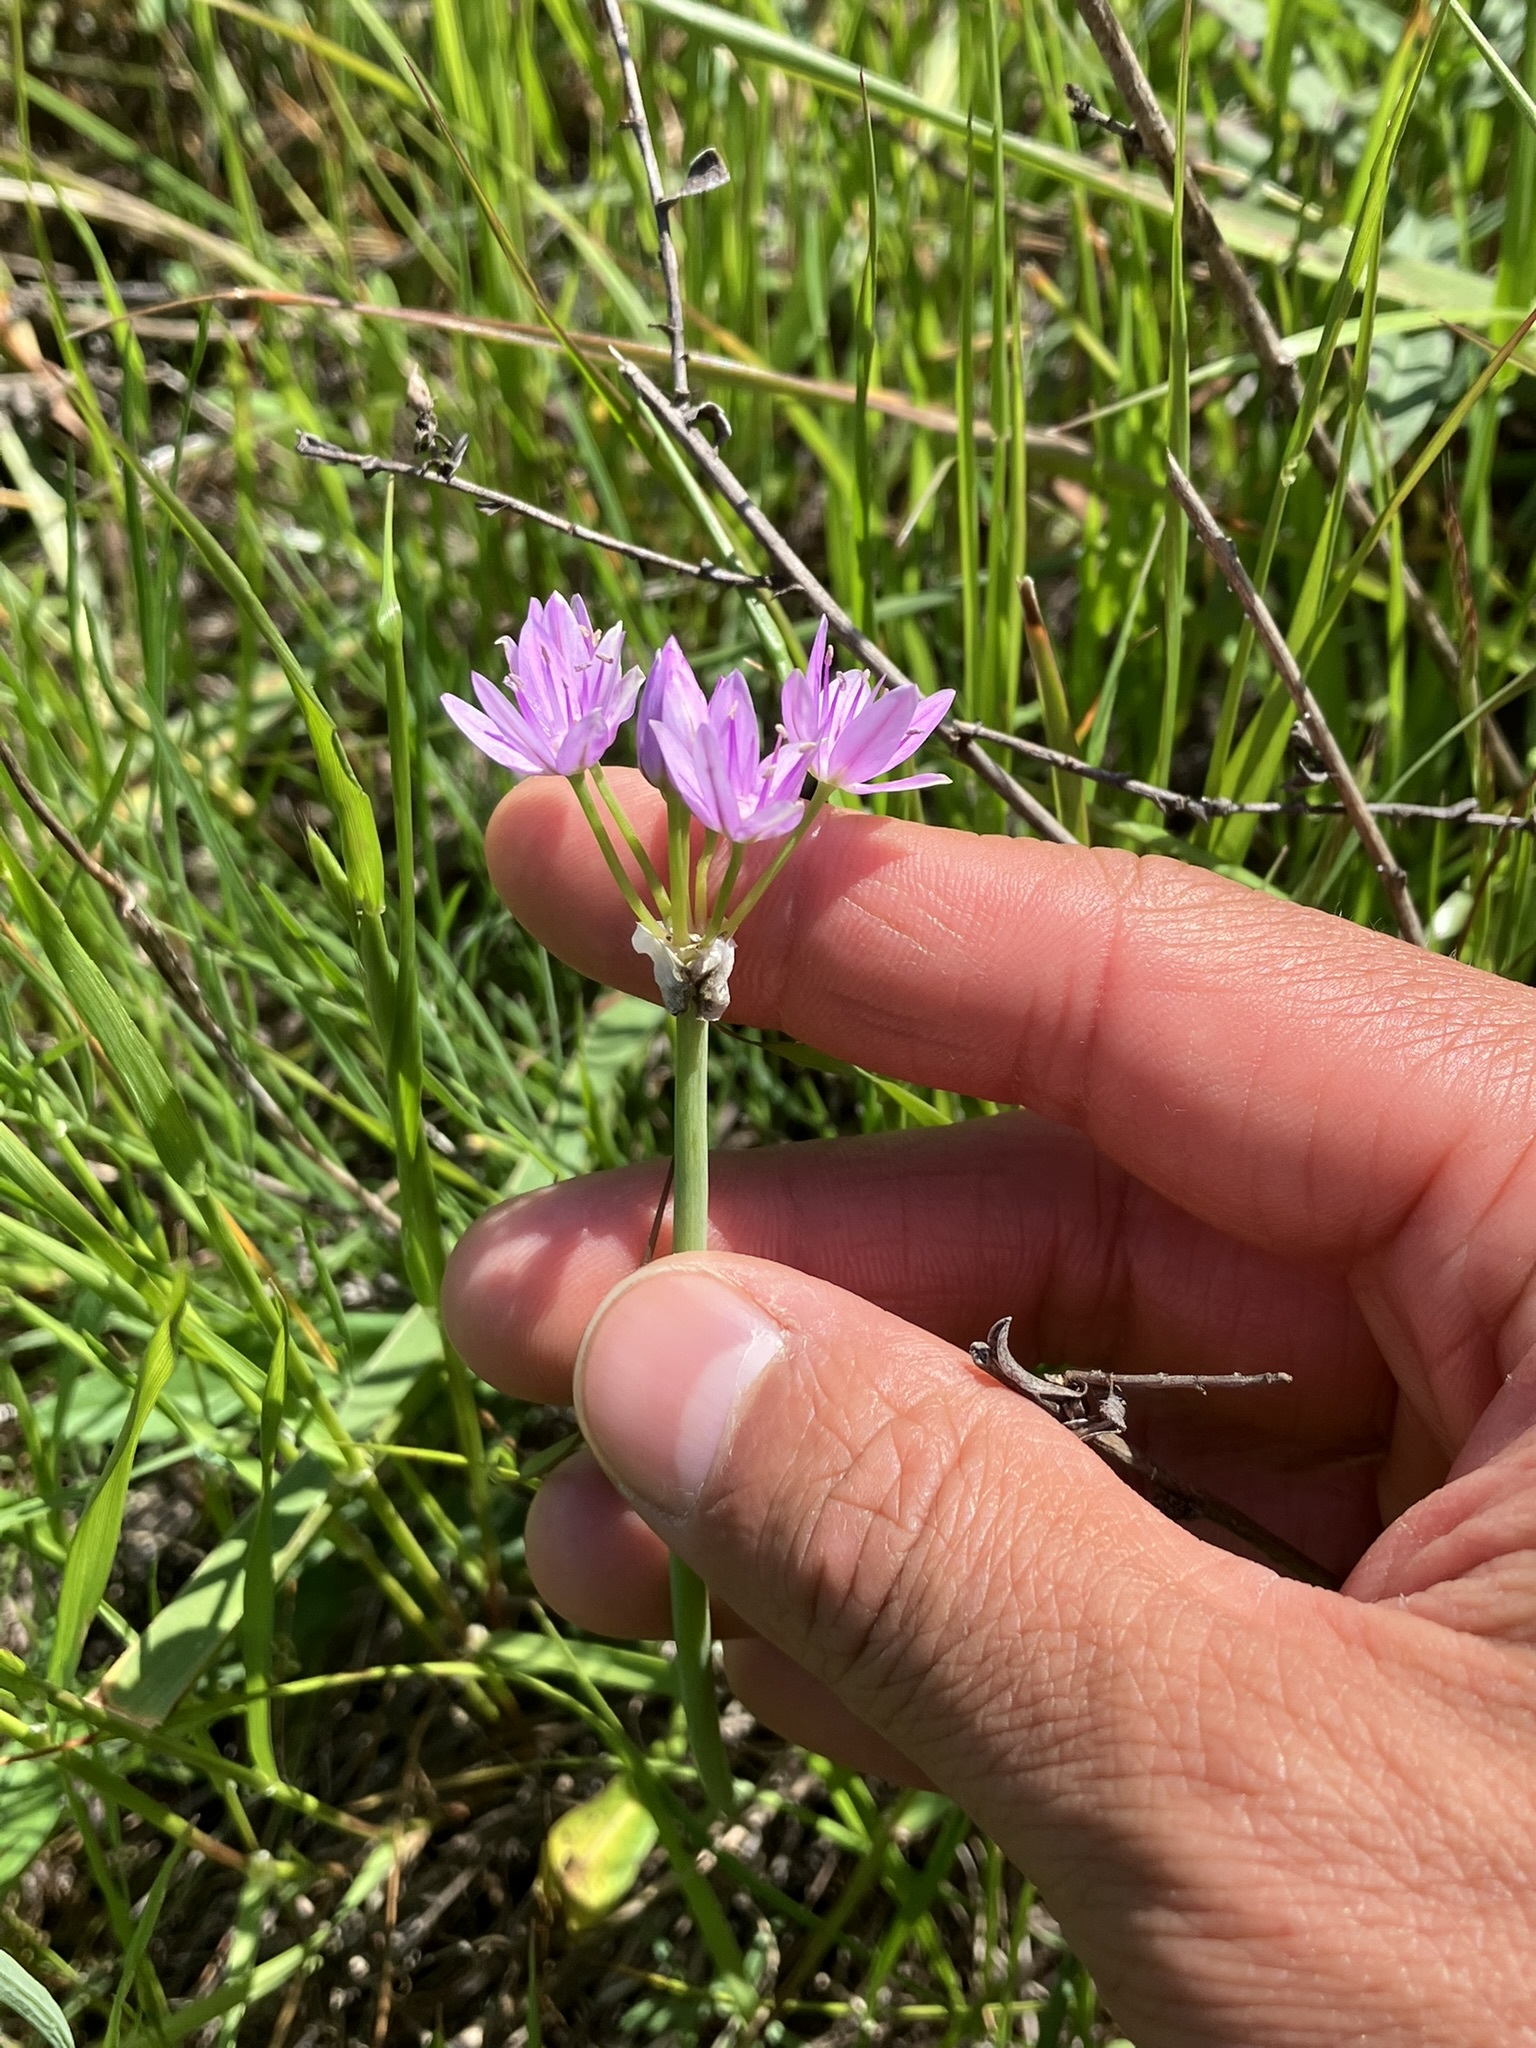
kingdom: Plantae
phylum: Tracheophyta
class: Liliopsida
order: Asparagales
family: Amaryllidaceae
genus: Allium
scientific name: Allium unifolium
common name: American garlic
